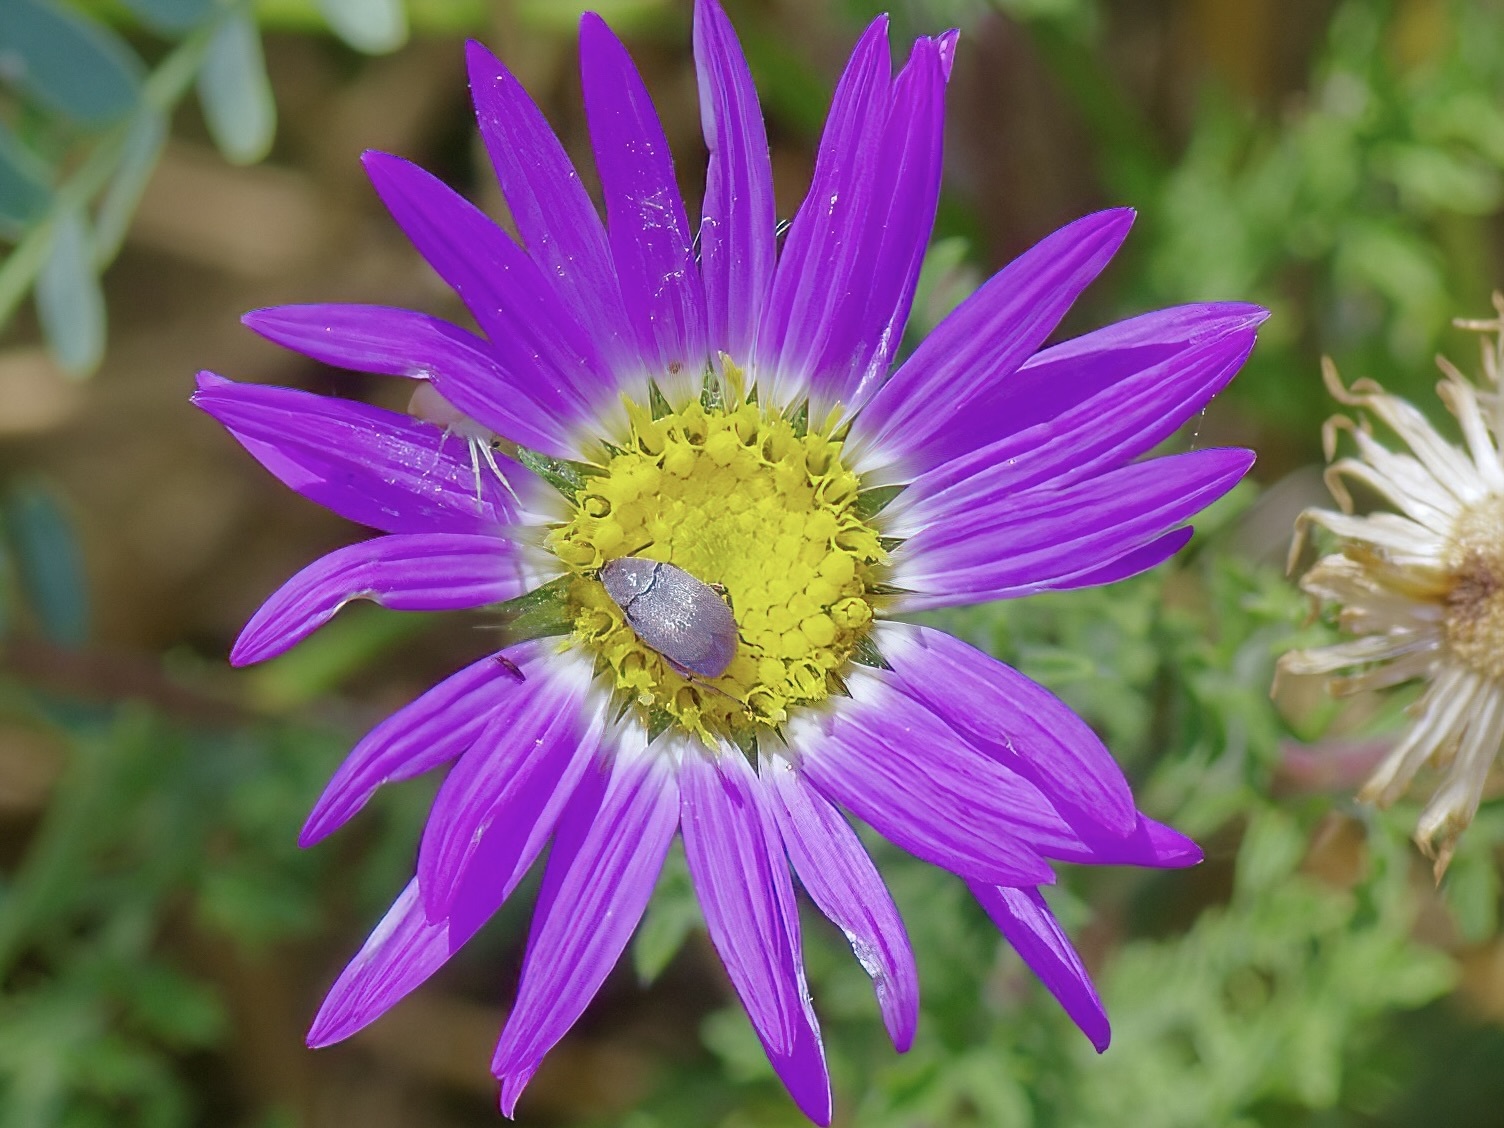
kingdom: Animalia
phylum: Arthropoda
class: Insecta
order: Coleoptera
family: Chrysomelidae
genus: Mimosestes
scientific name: Mimosestes amicus
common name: Leaf beetle
